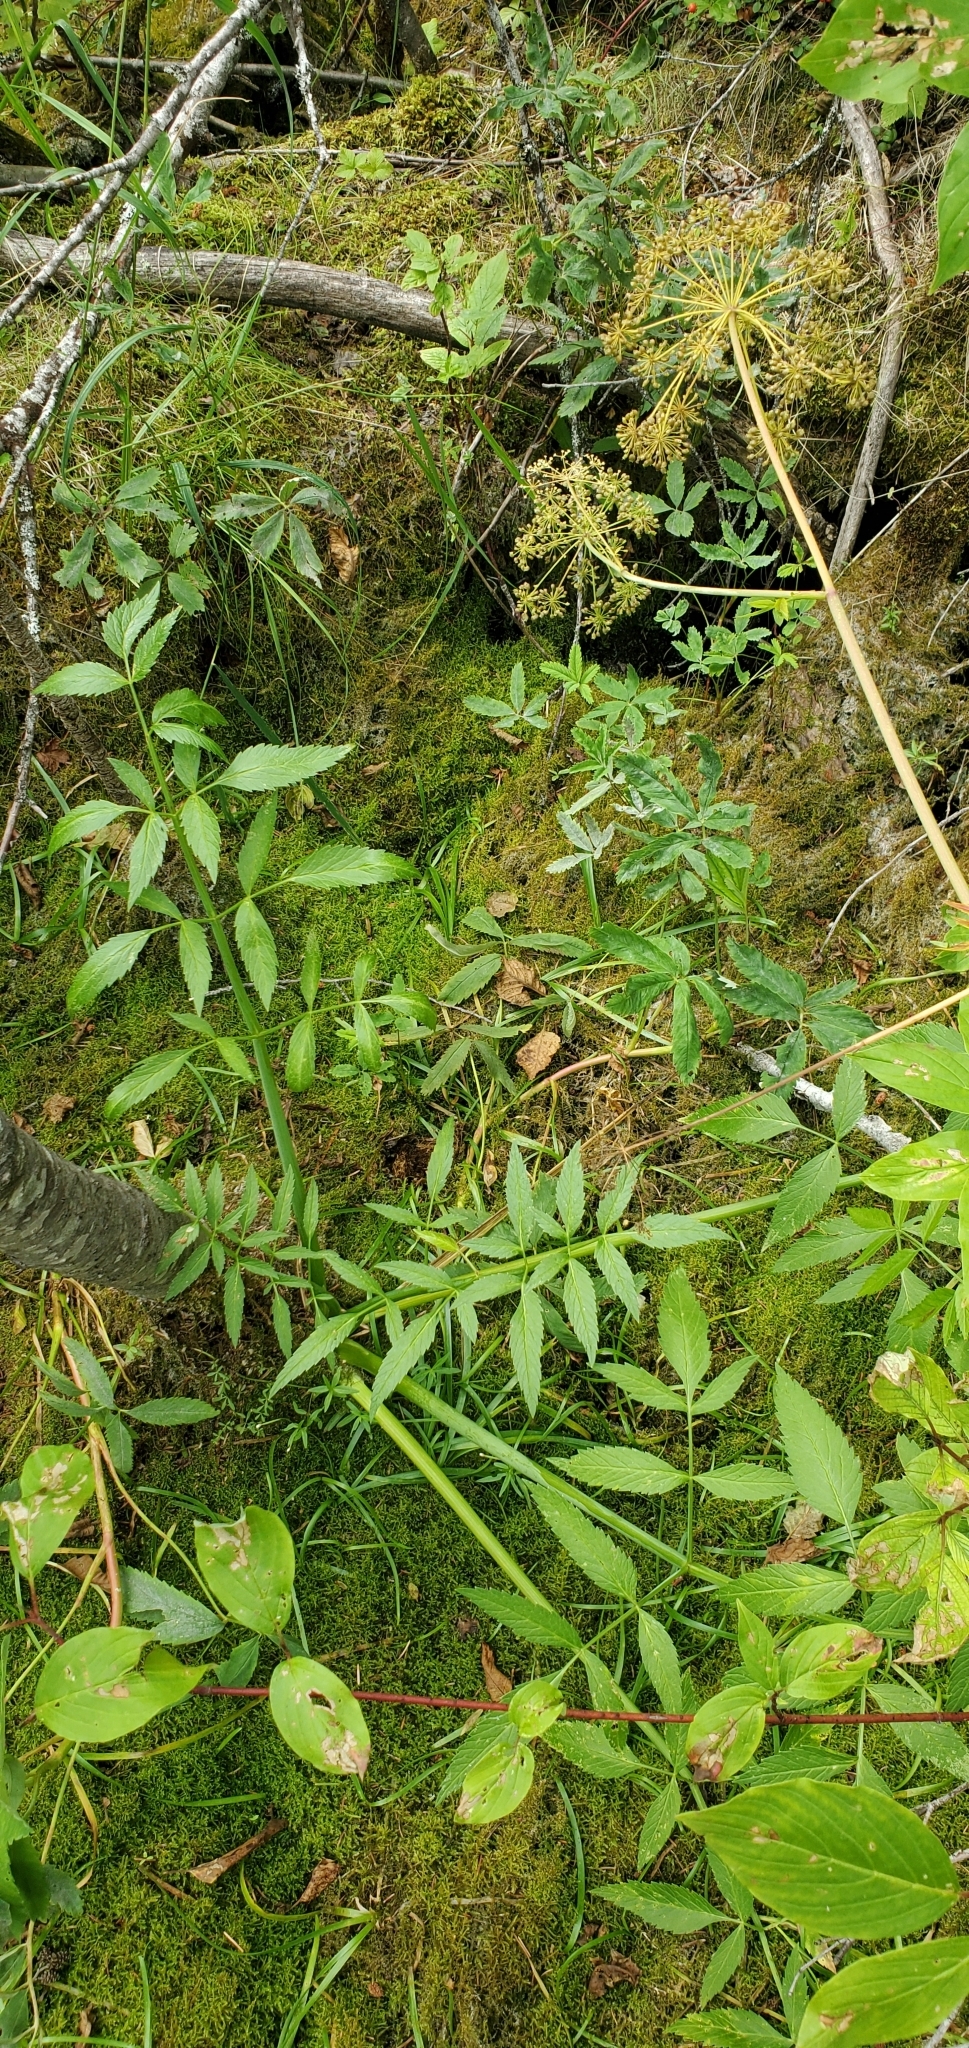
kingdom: Plantae
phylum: Tracheophyta
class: Magnoliopsida
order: Apiales
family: Apiaceae
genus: Cicuta
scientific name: Cicuta douglasii
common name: Western water-hemlock
